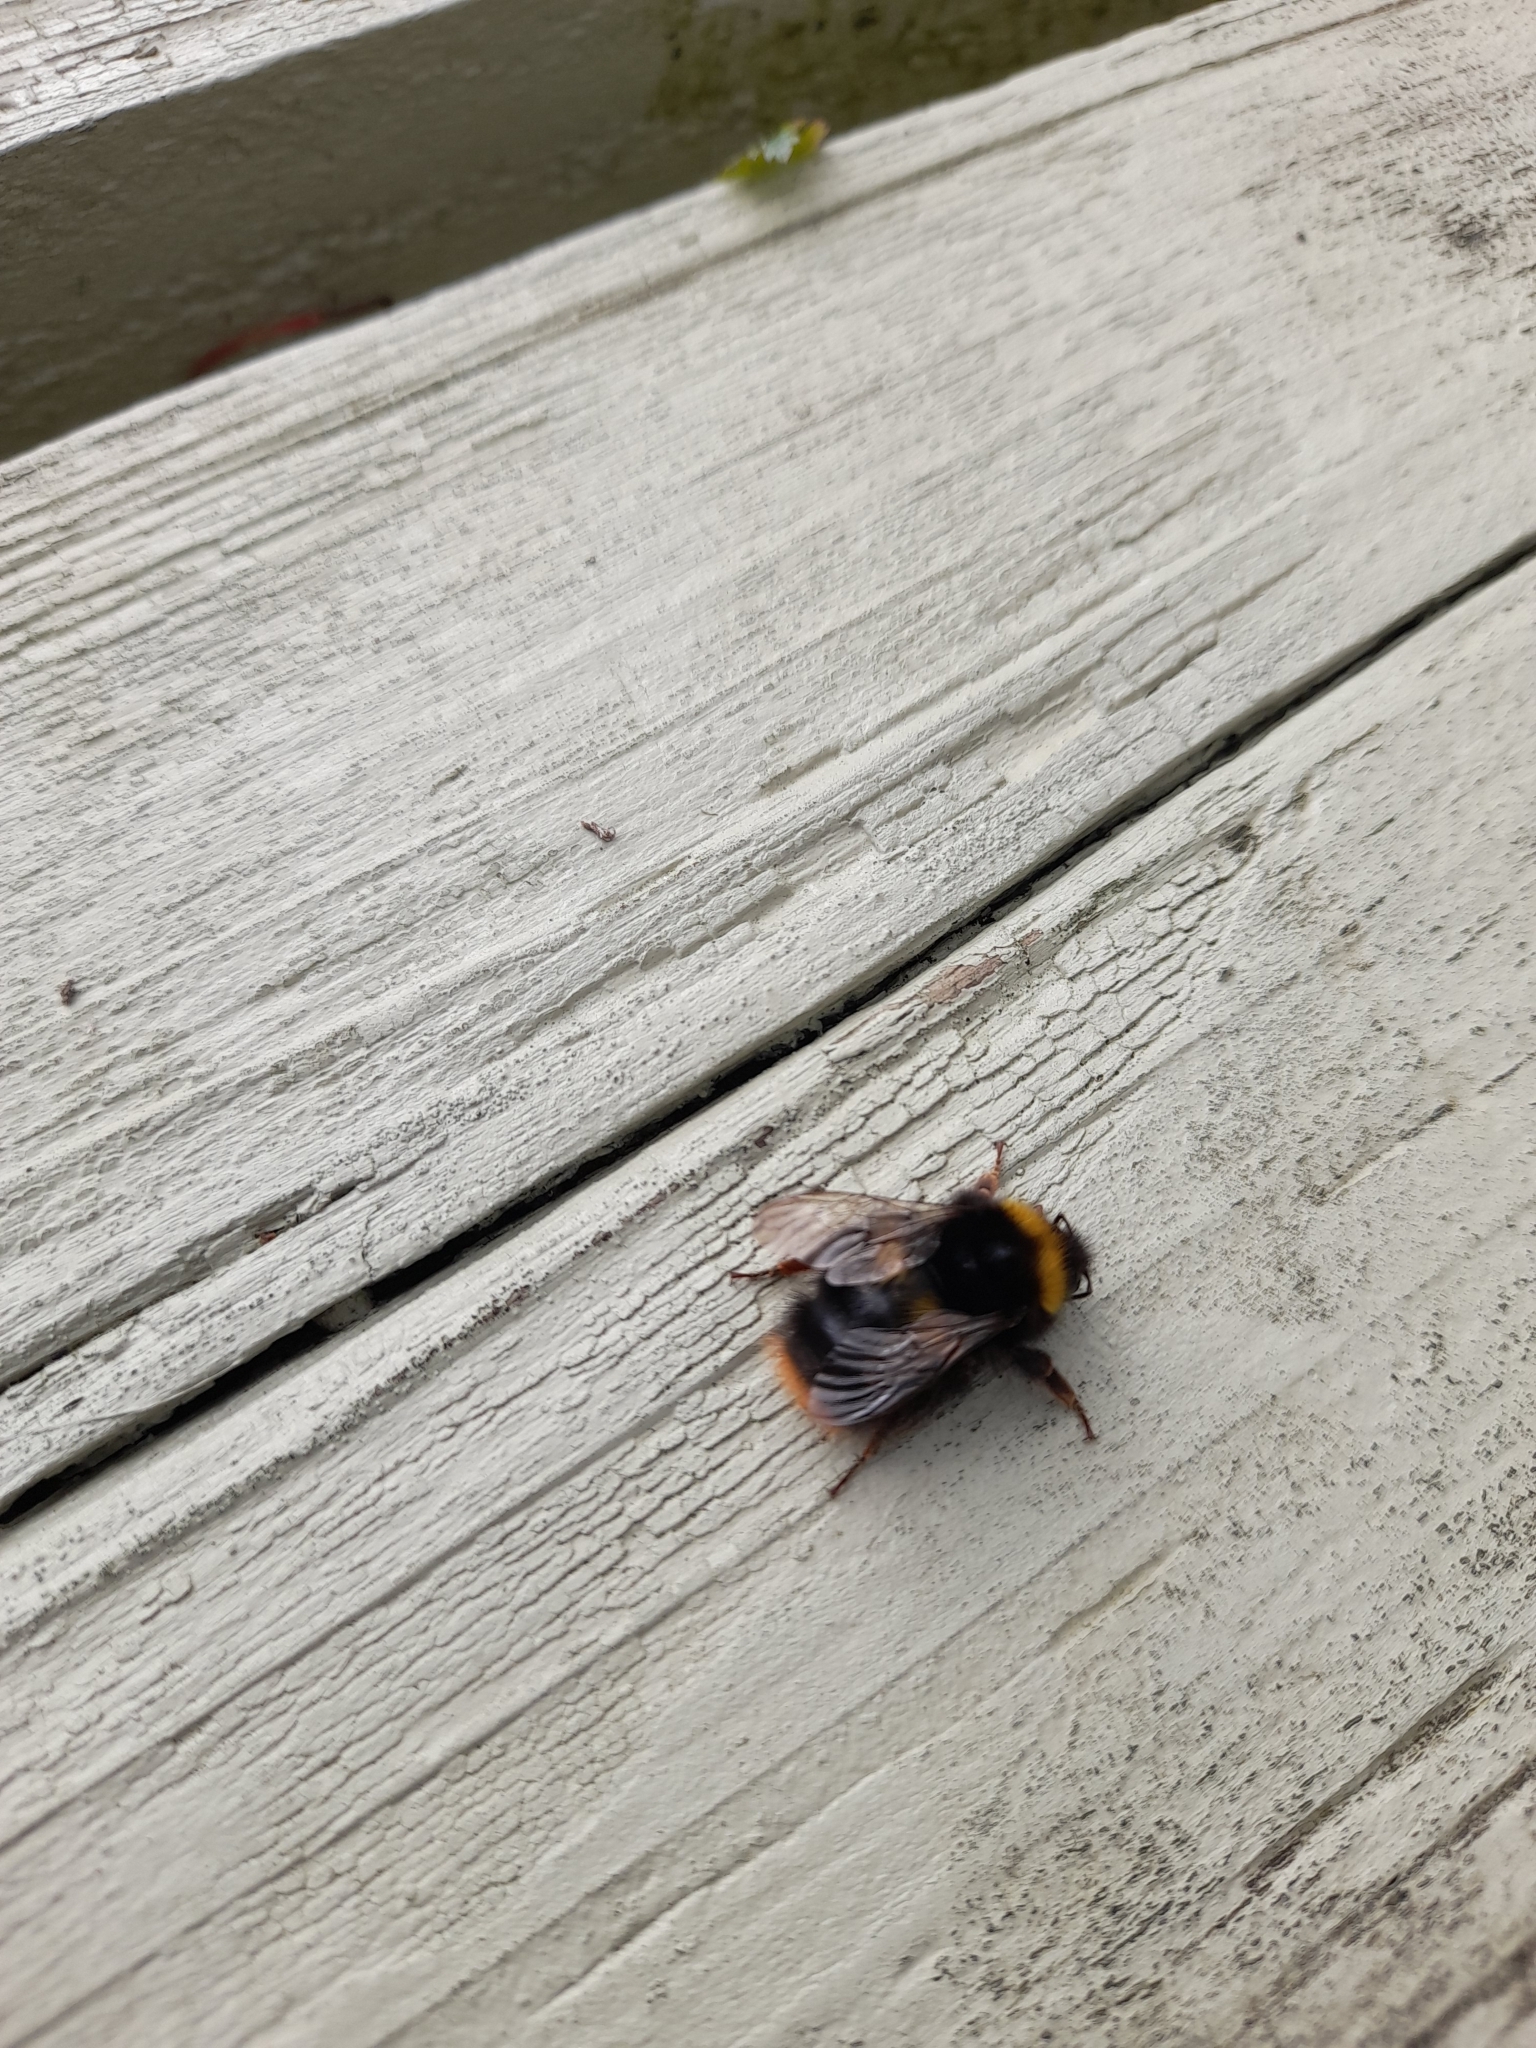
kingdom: Animalia
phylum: Arthropoda
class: Insecta
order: Hymenoptera
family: Apidae
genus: Bombus
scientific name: Bombus pratorum
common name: Early humble-bee
